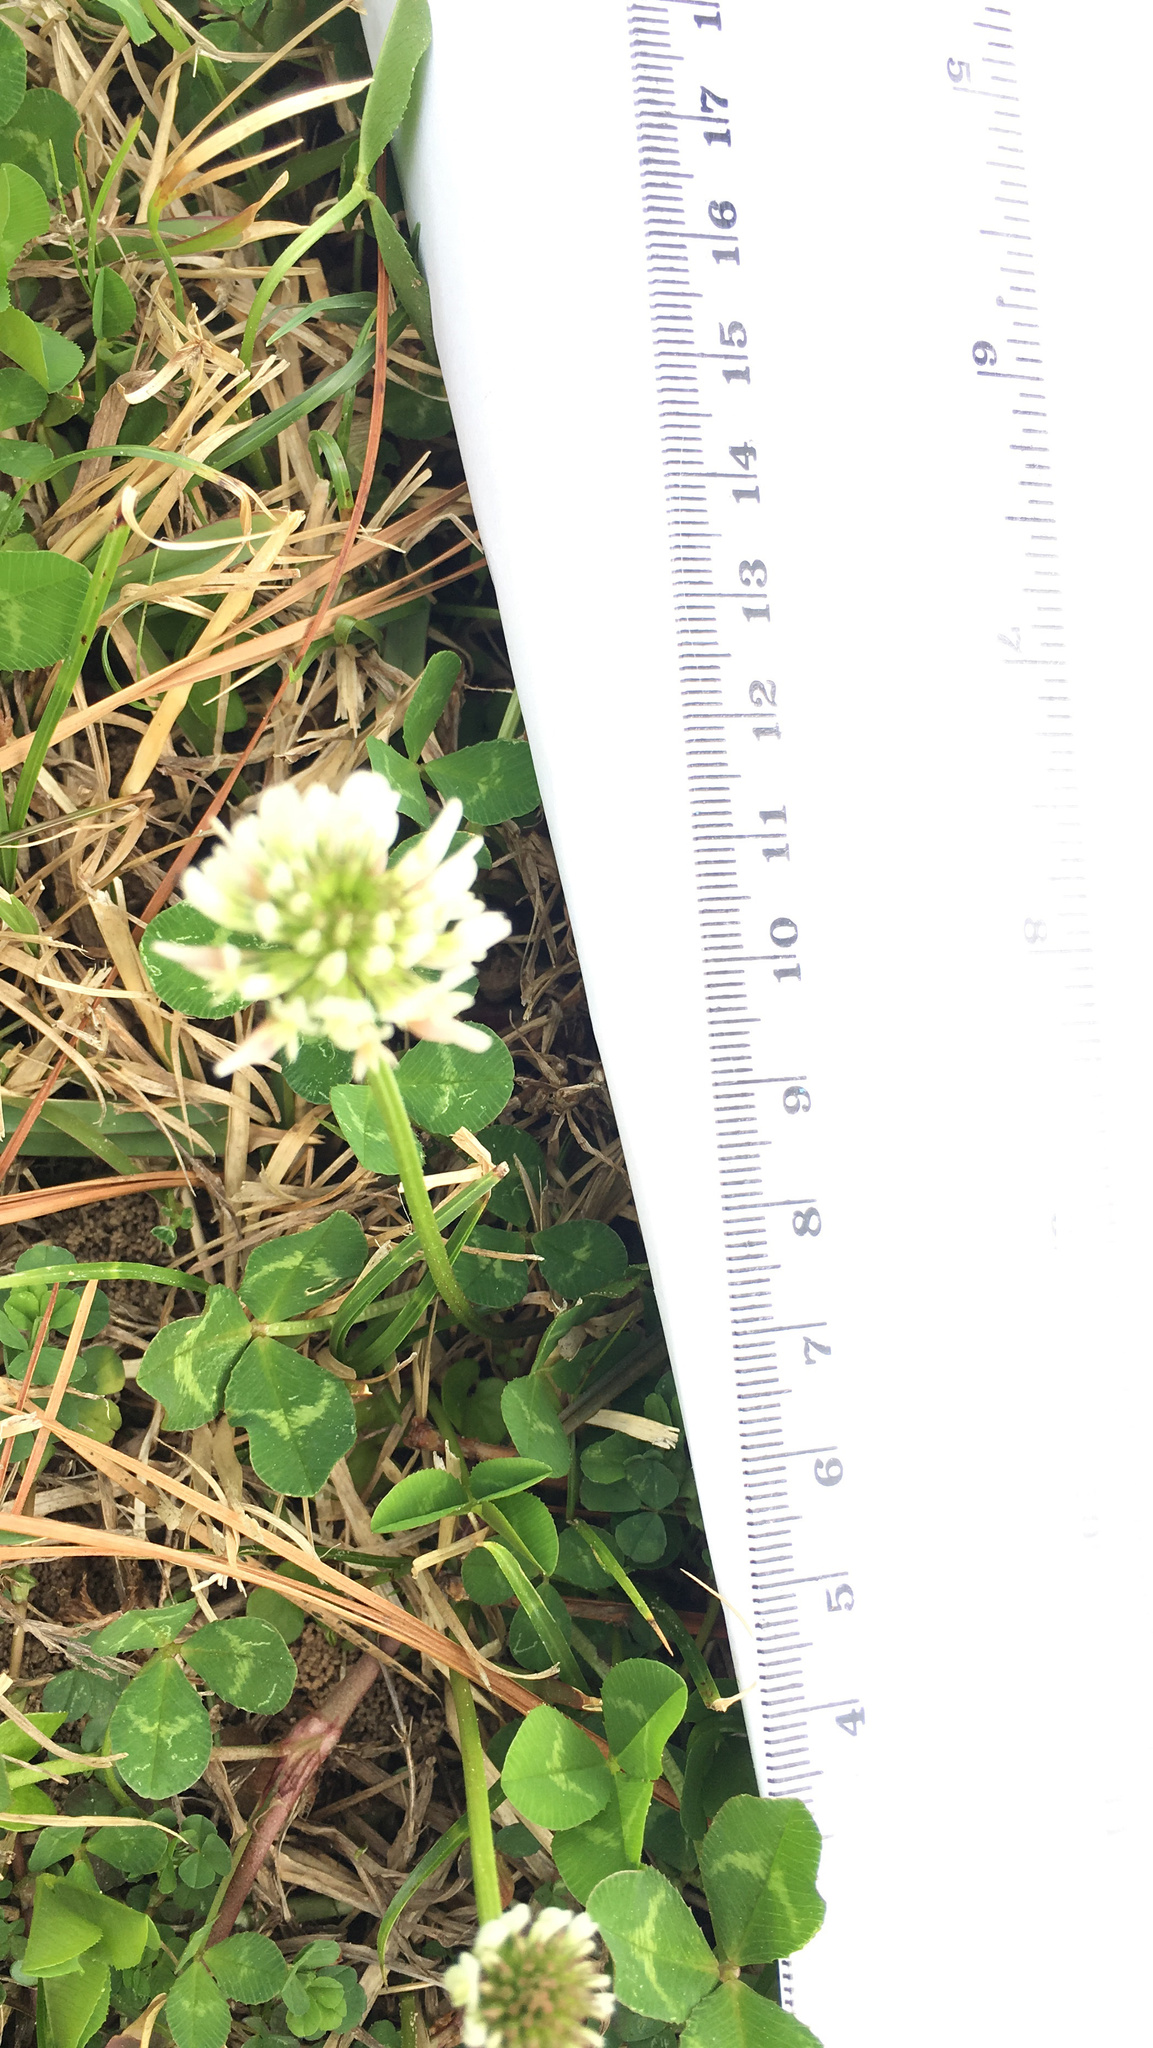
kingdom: Plantae
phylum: Tracheophyta
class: Magnoliopsida
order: Fabales
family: Fabaceae
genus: Trifolium
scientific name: Trifolium repens
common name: White clover
